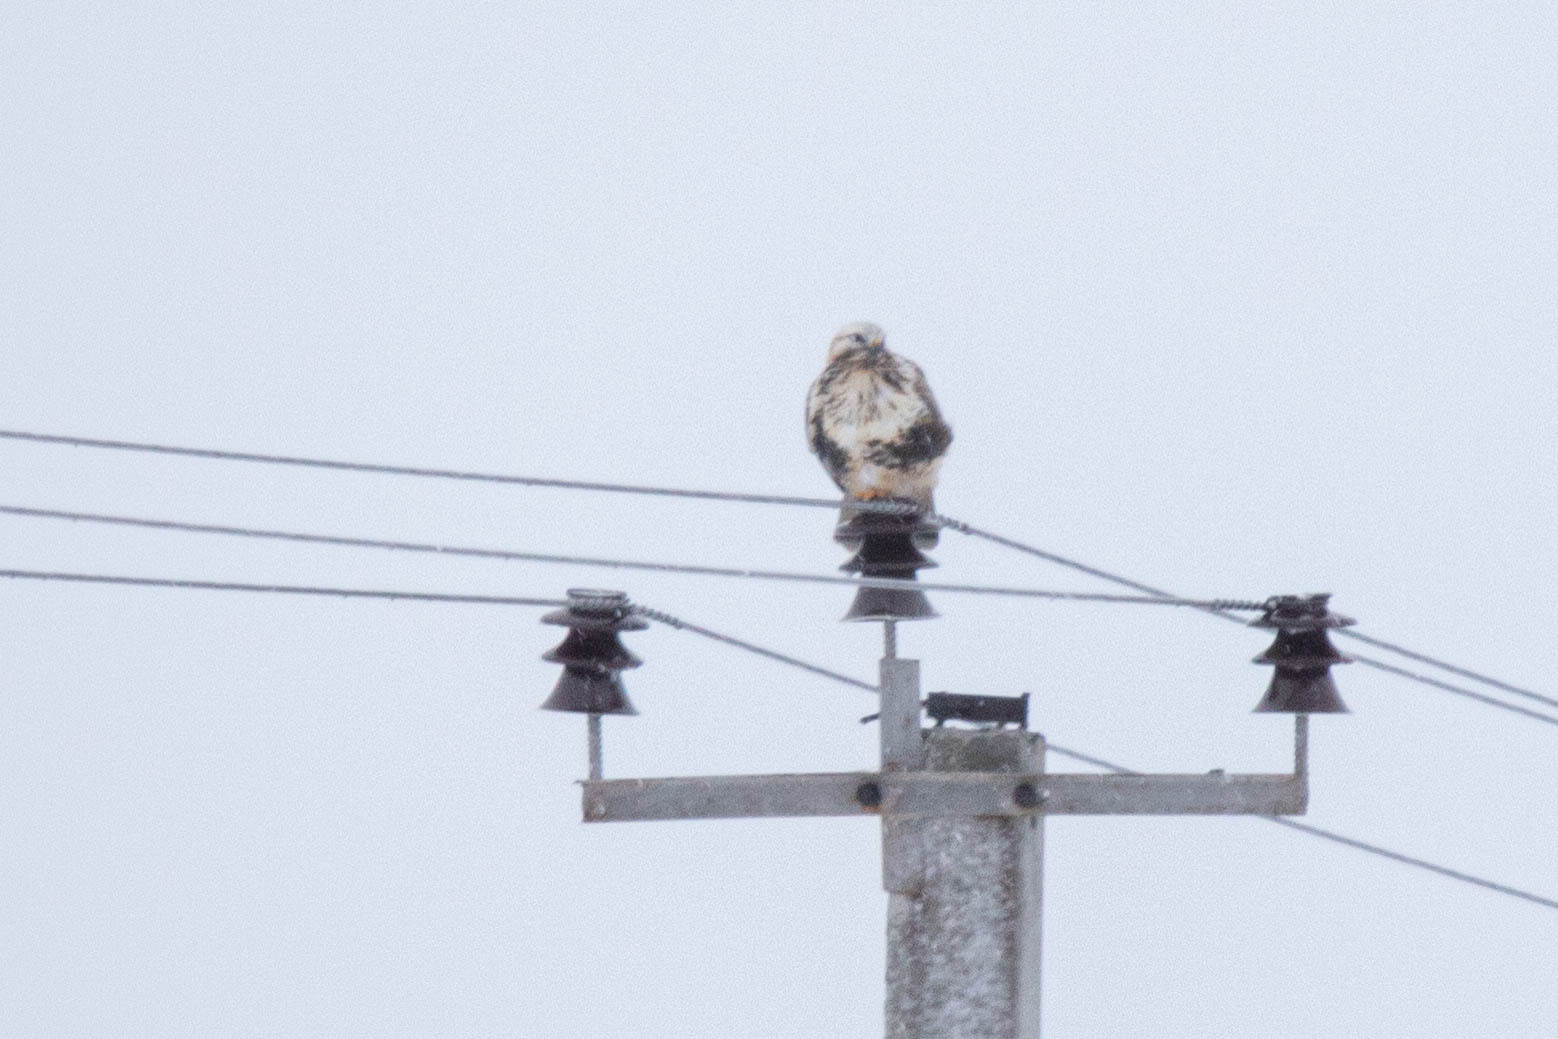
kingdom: Animalia
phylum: Chordata
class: Aves
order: Accipitriformes
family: Accipitridae
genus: Buteo
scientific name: Buteo lagopus
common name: Rough-legged buzzard
